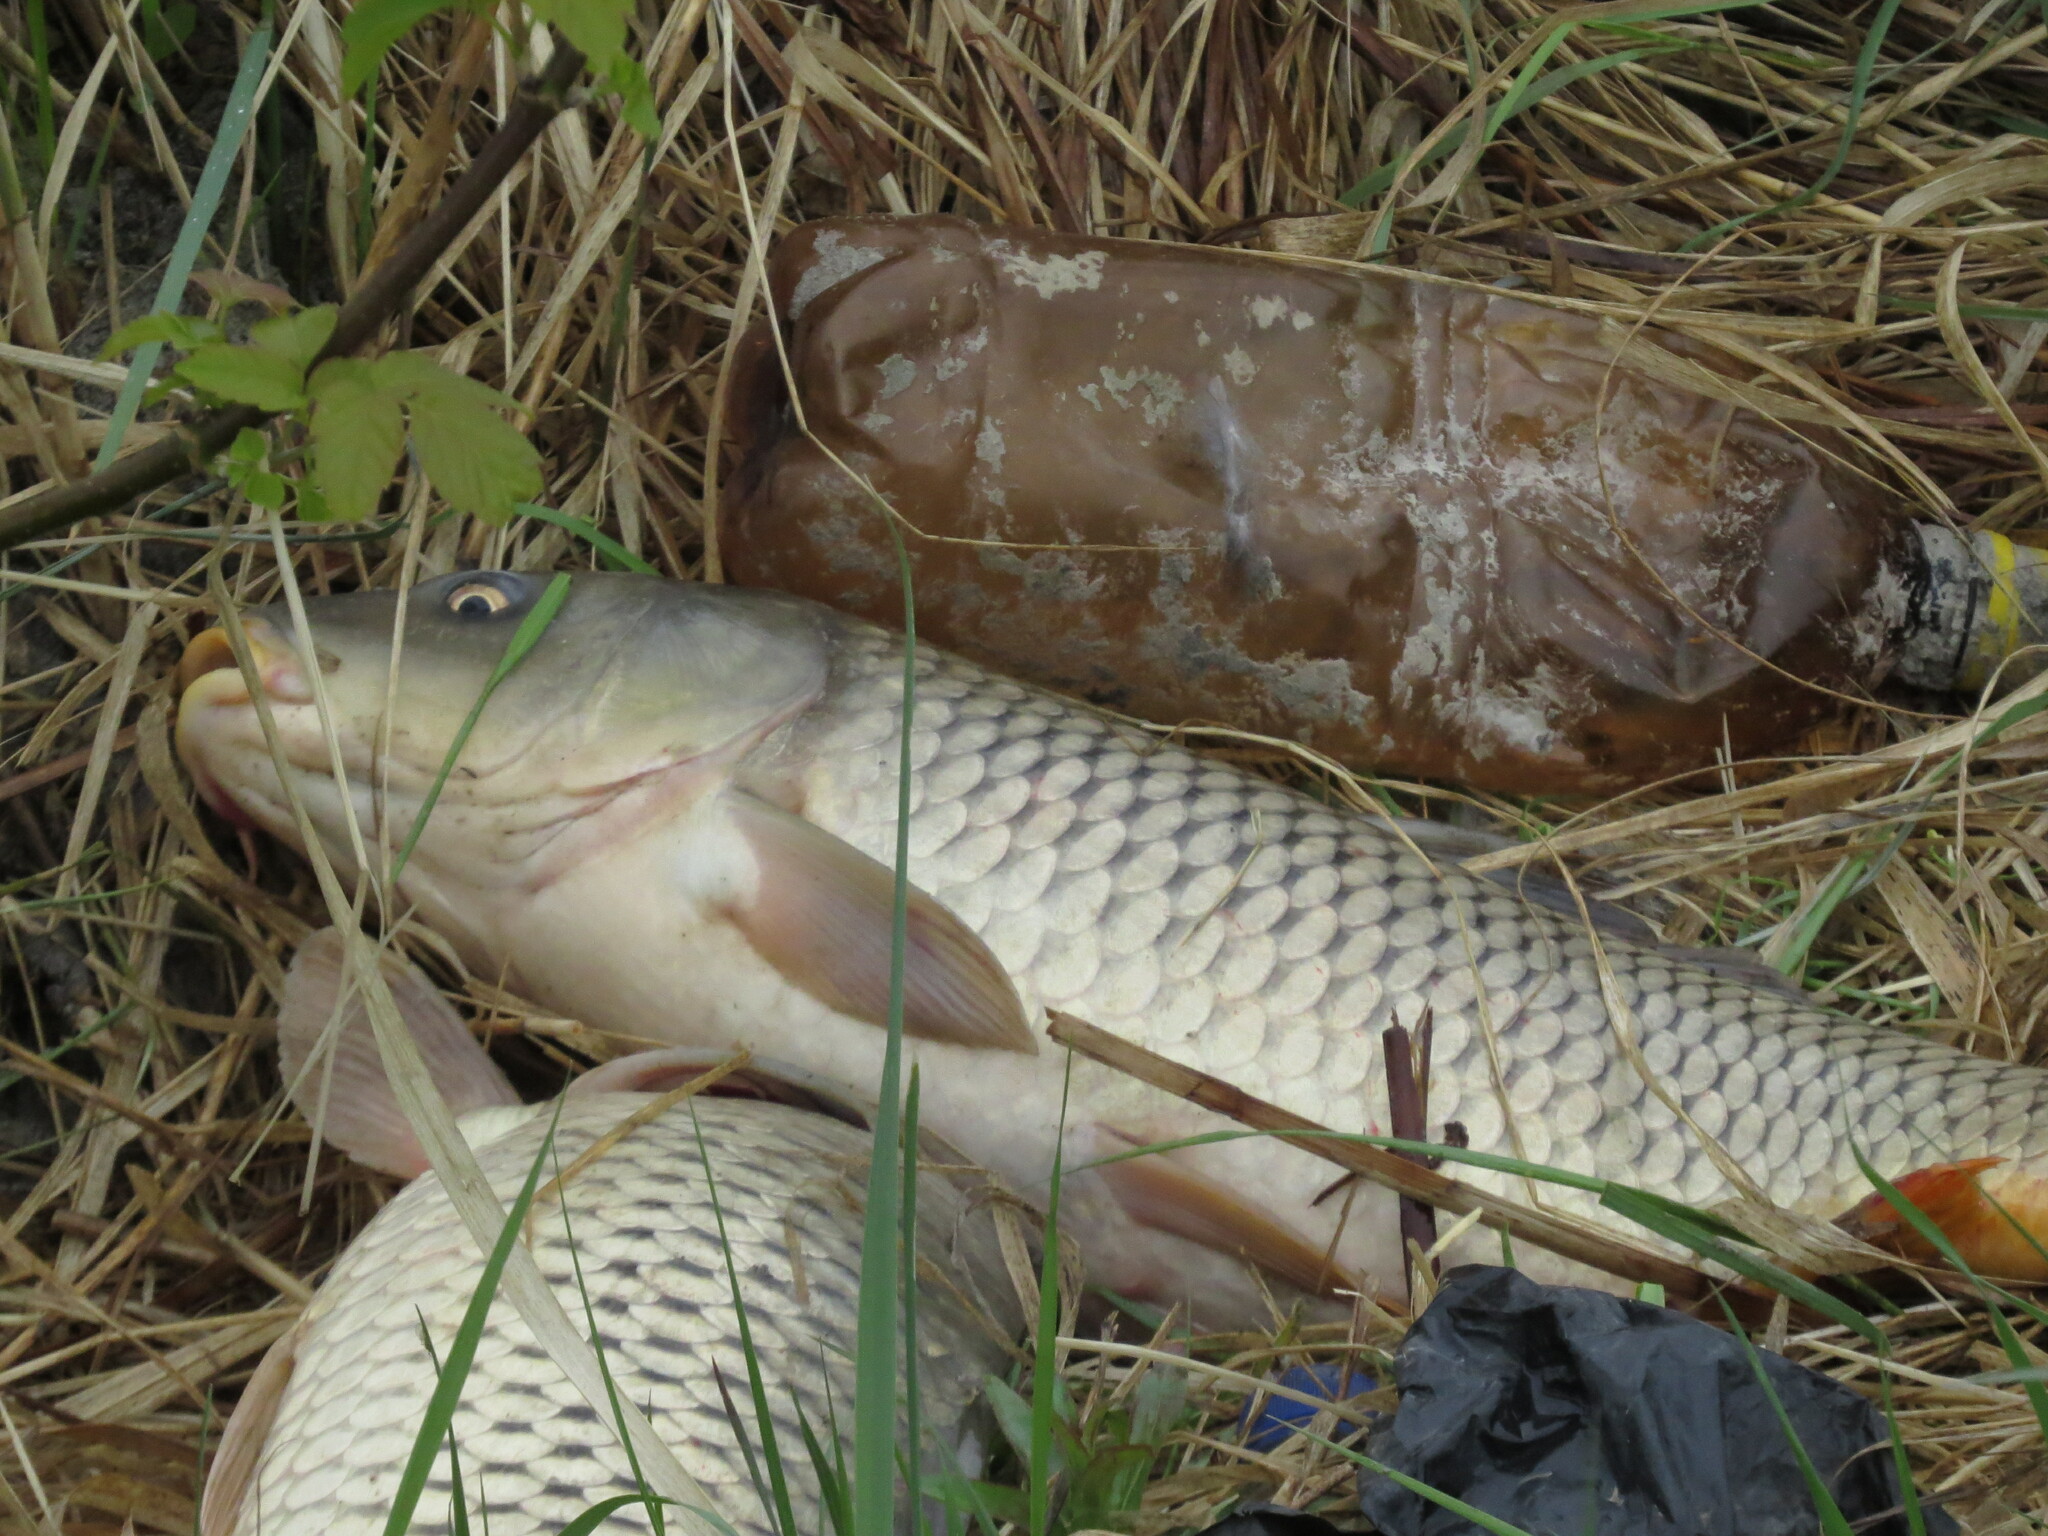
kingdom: Animalia
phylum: Chordata
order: Cypriniformes
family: Cyprinidae
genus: Cyprinus
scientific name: Cyprinus carpio
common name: Common carp
